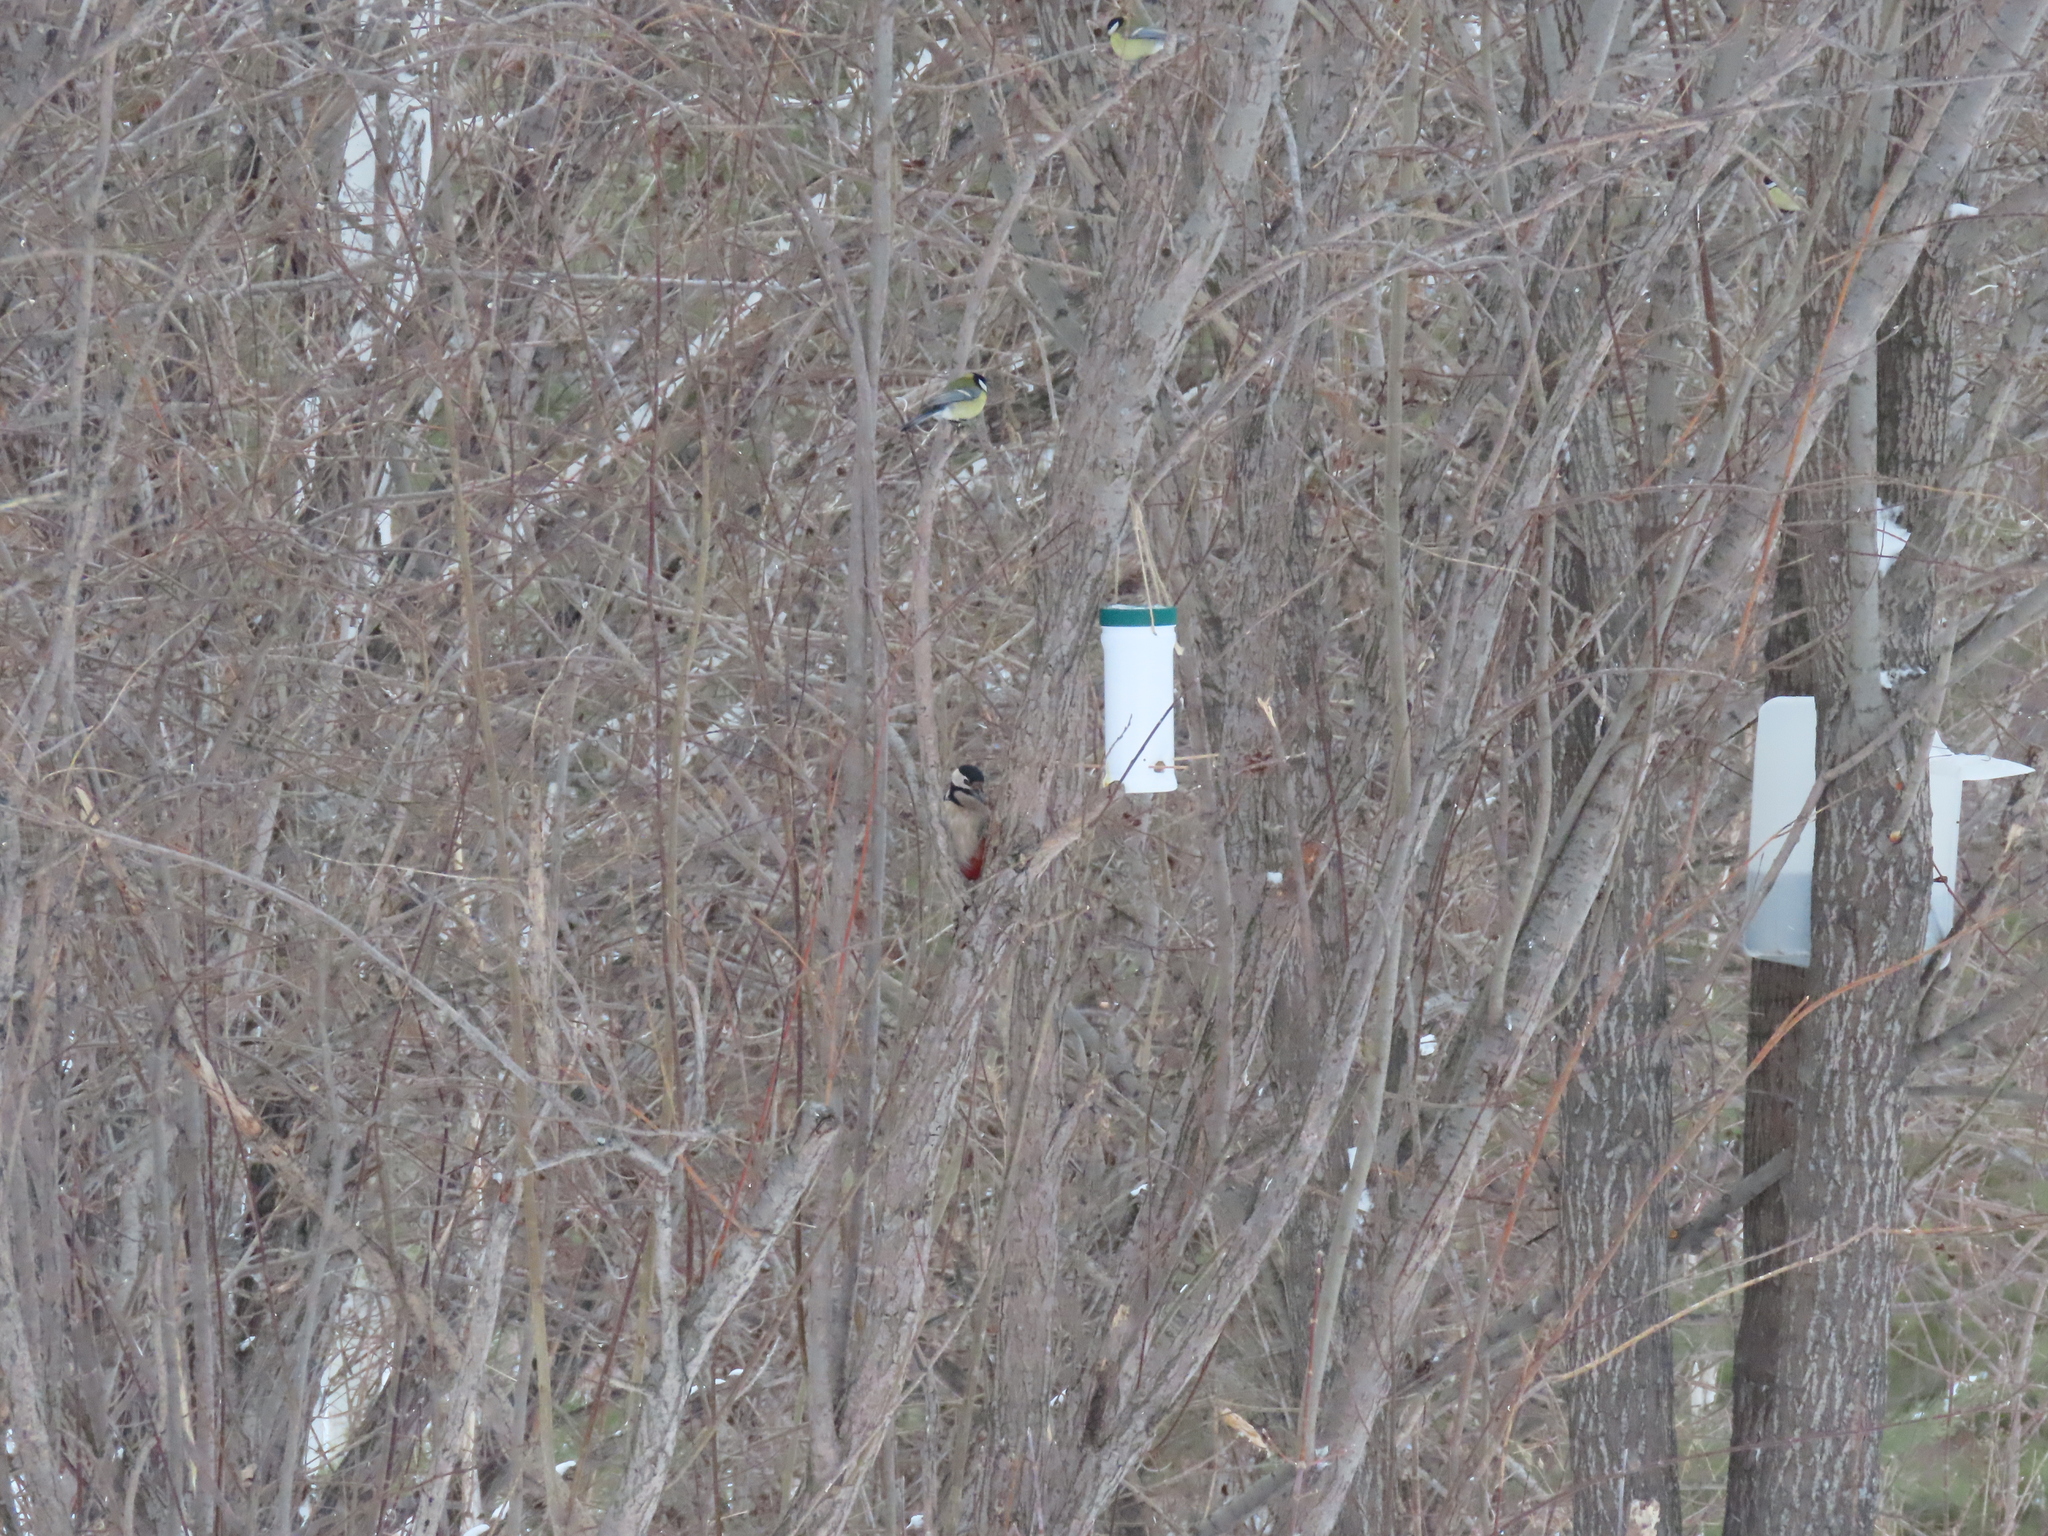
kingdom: Animalia
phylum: Chordata
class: Aves
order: Piciformes
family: Picidae
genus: Dendrocopos
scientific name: Dendrocopos major
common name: Great spotted woodpecker
